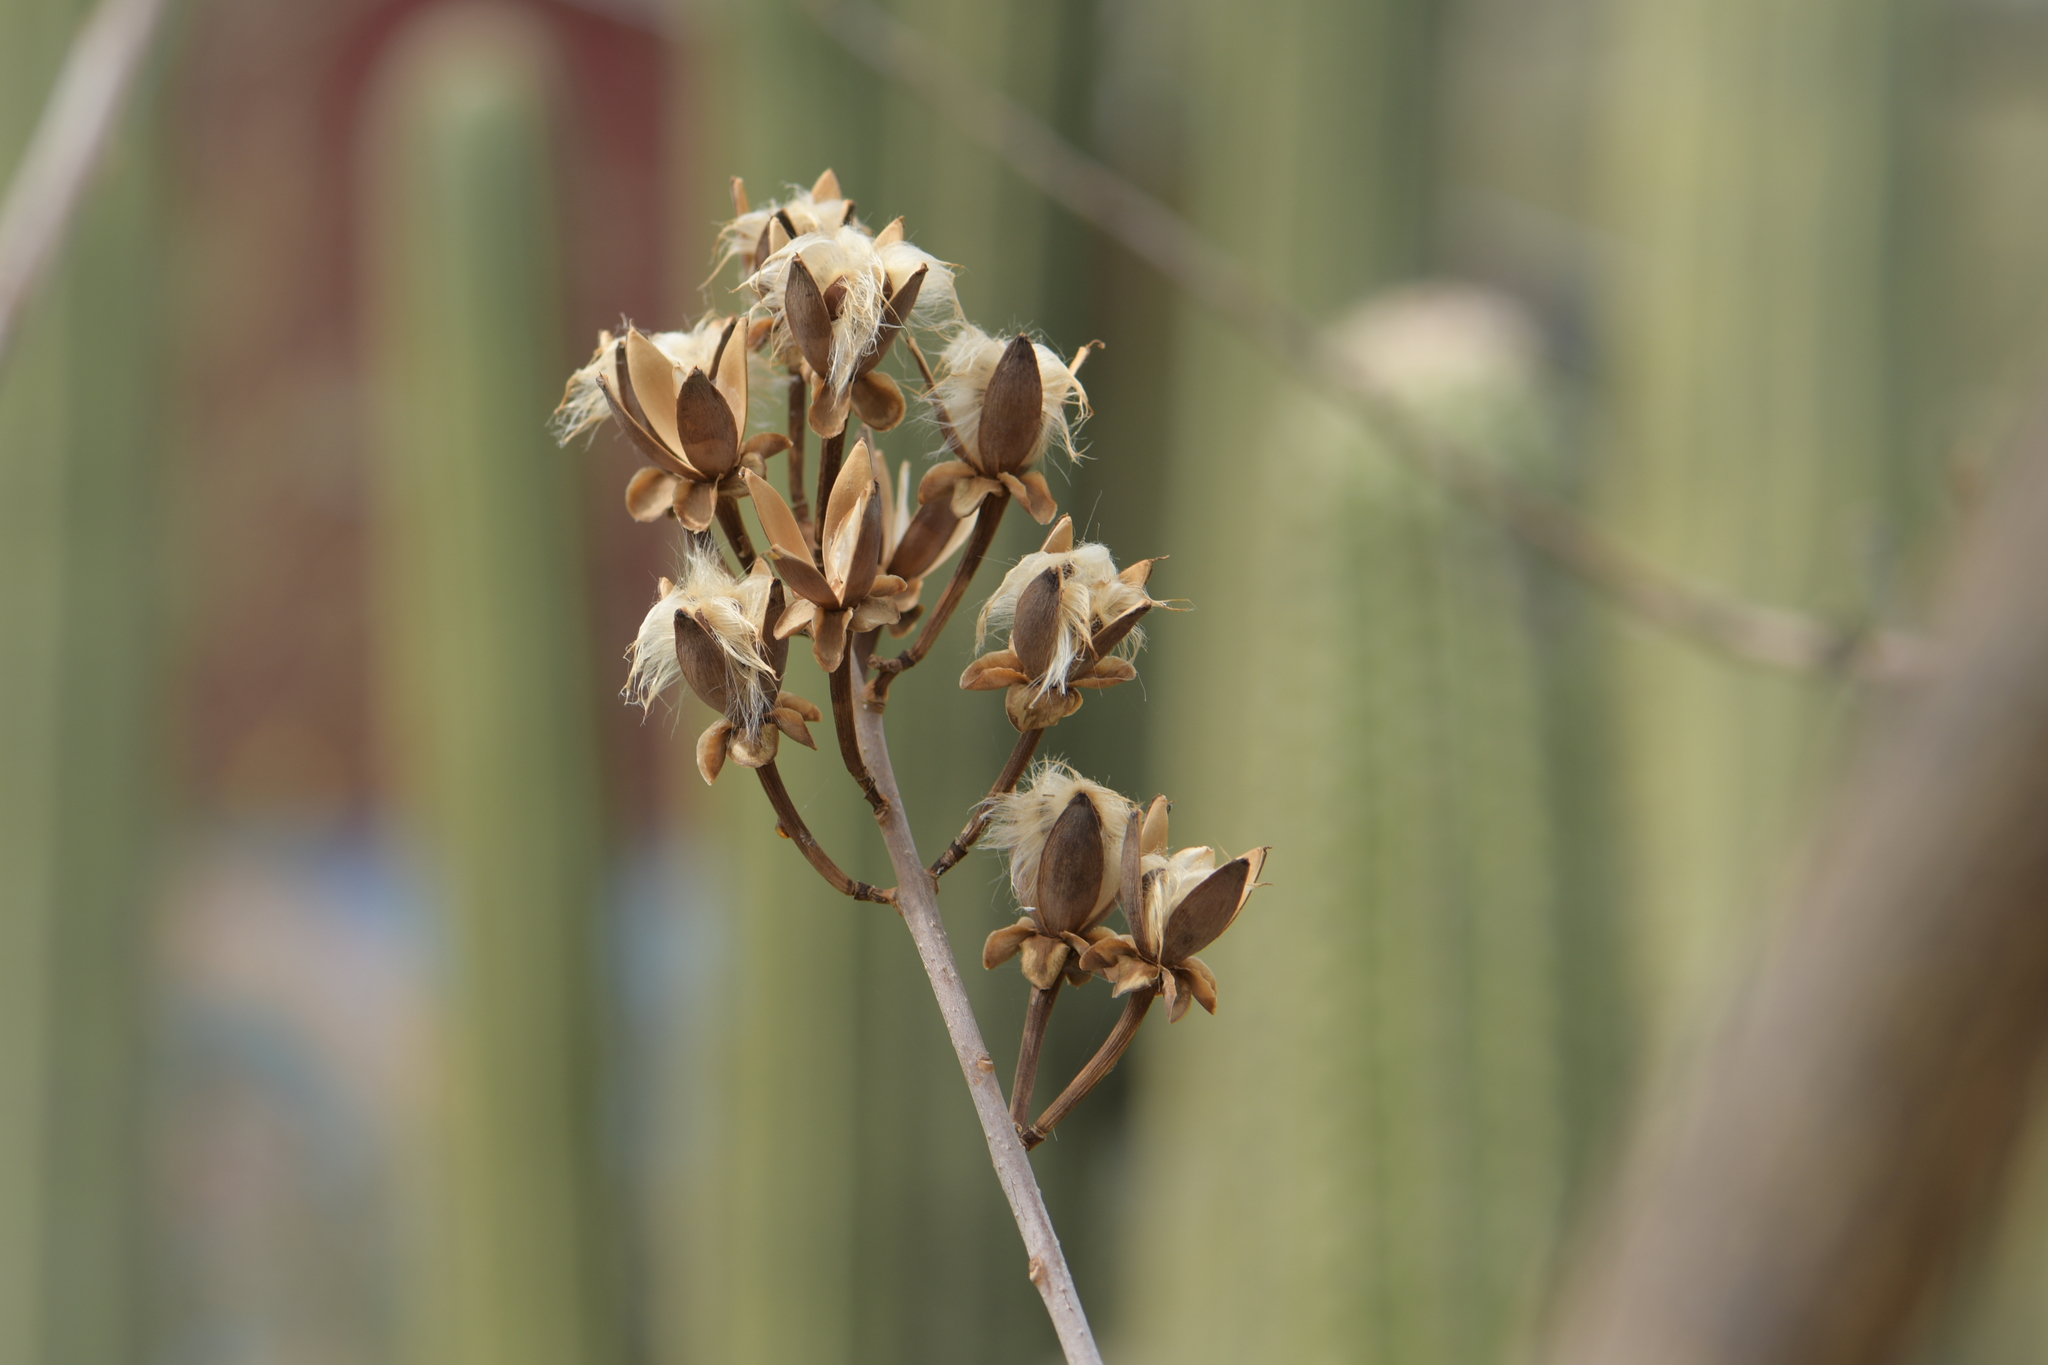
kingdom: Plantae
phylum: Tracheophyta
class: Magnoliopsida
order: Solanales
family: Convolvulaceae
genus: Ipomoea
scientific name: Ipomoea pauciflora
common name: Tree morningglory
